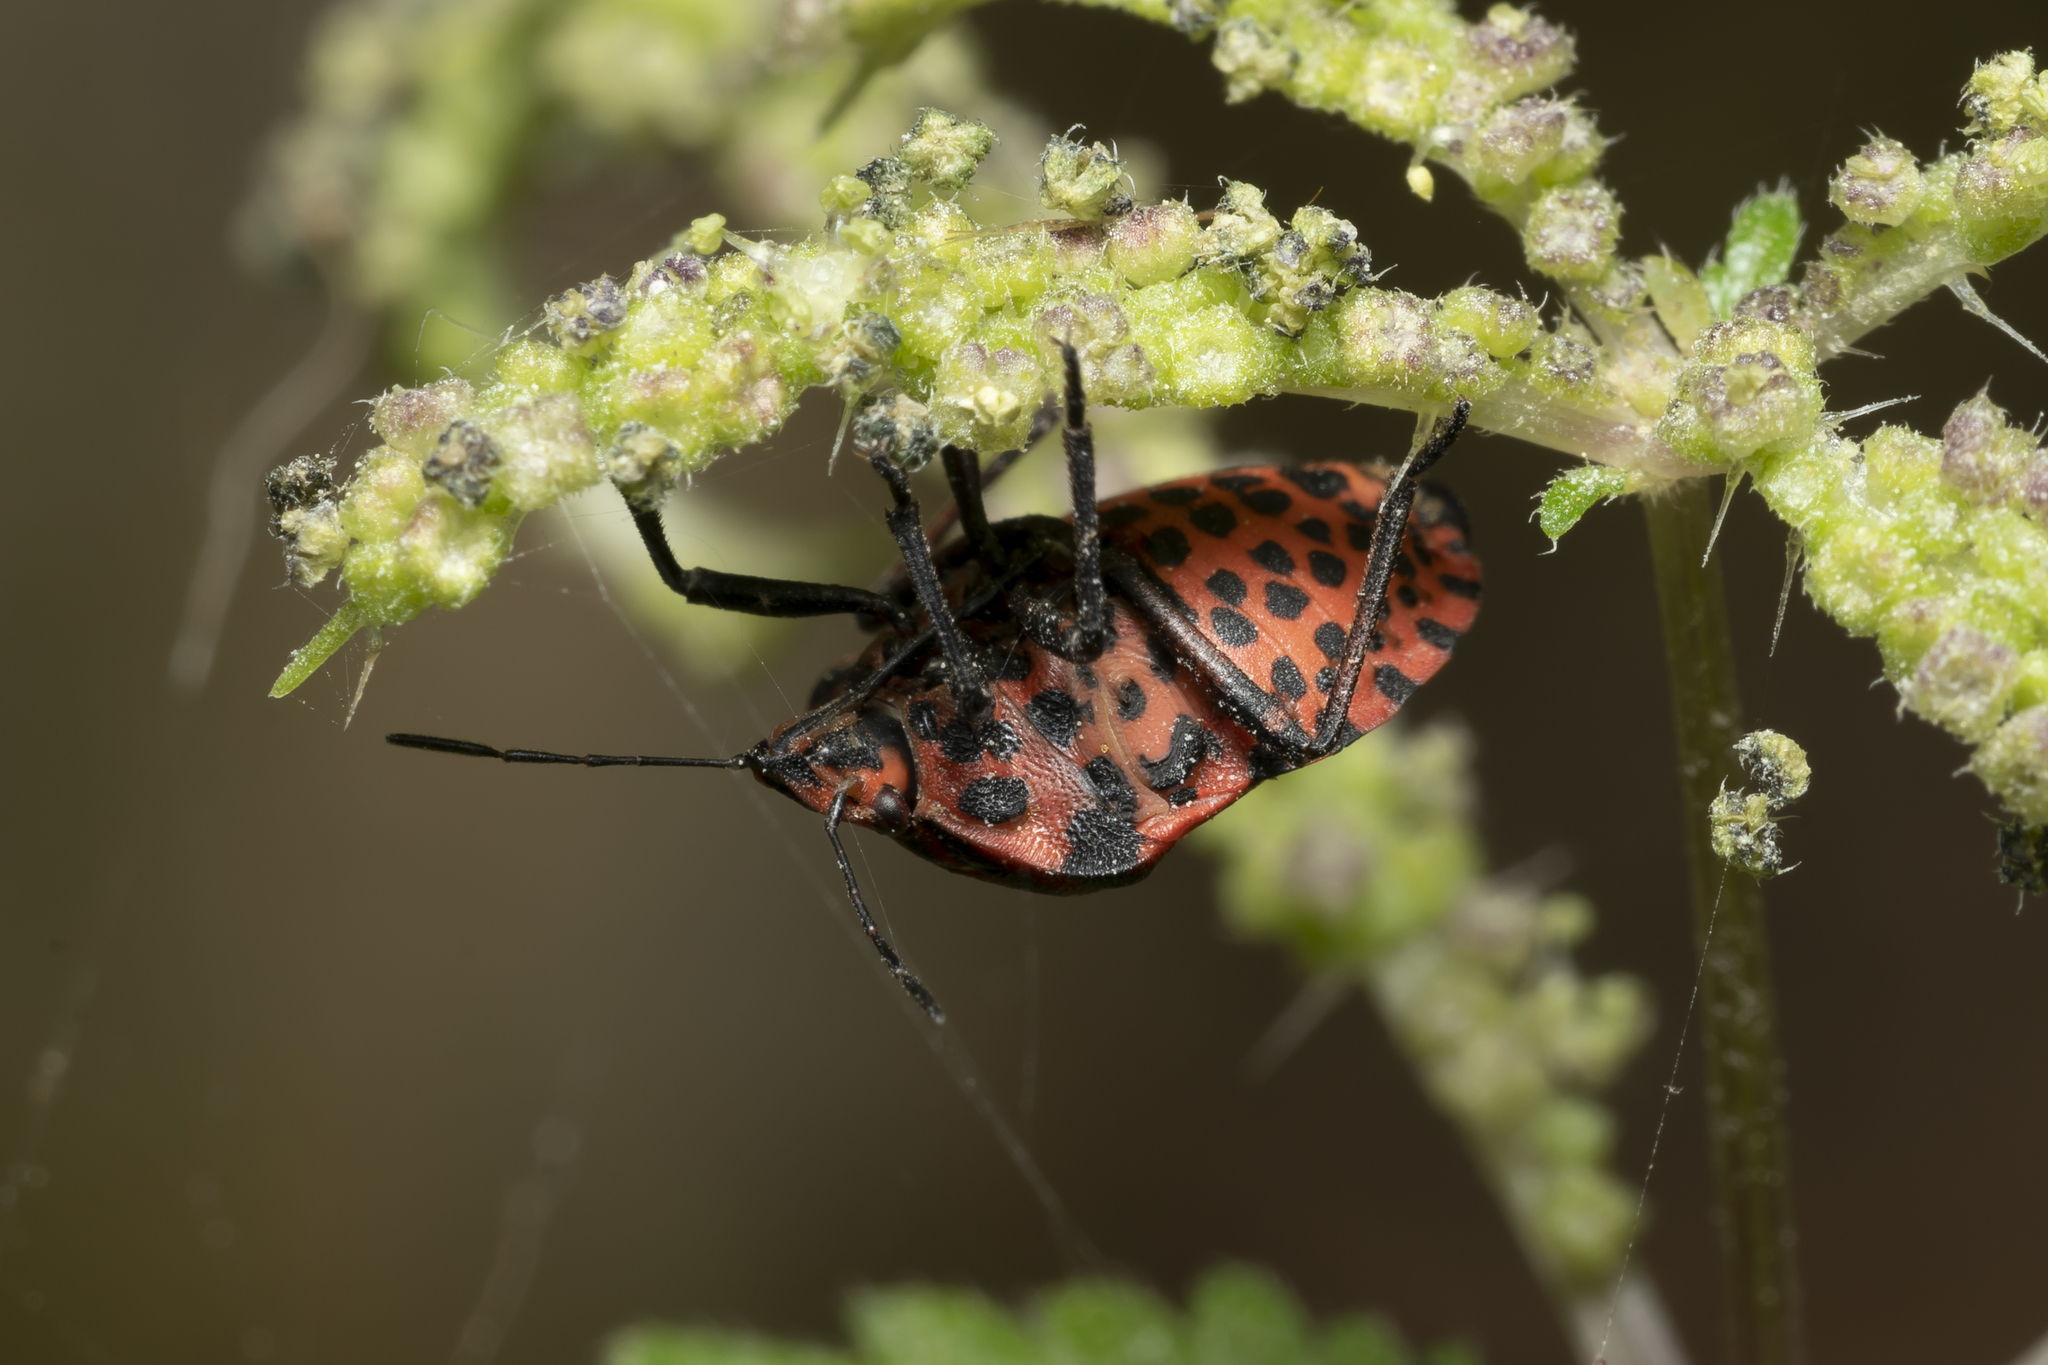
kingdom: Animalia
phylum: Arthropoda
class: Insecta
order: Hemiptera
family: Pentatomidae
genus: Graphosoma
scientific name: Graphosoma italicum
